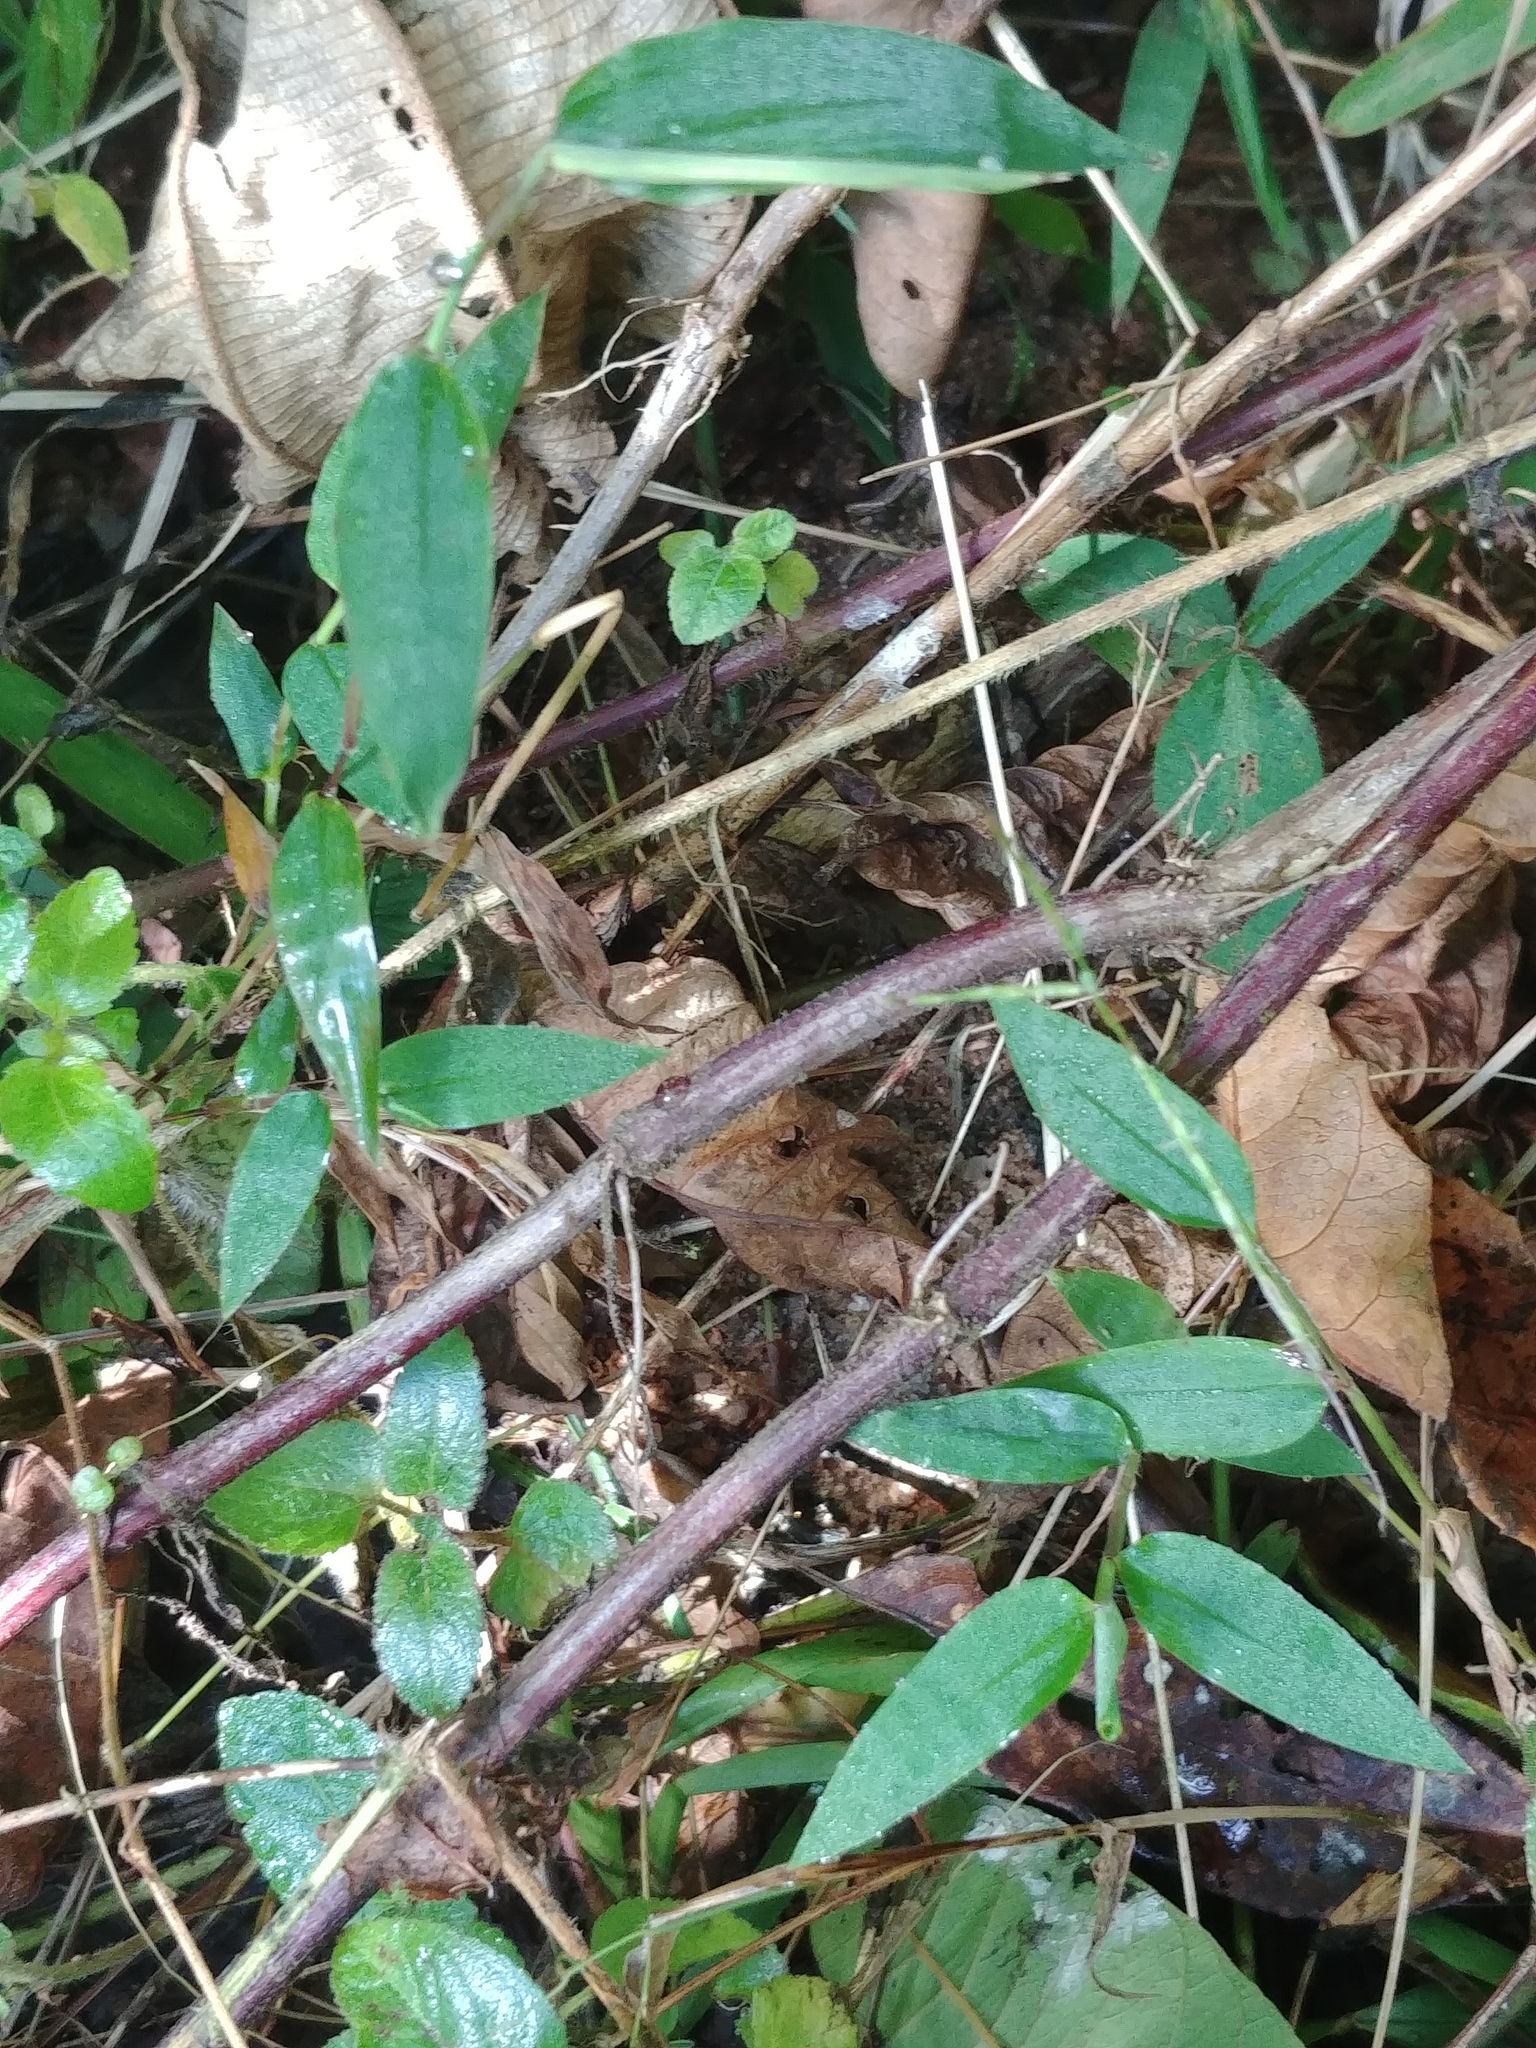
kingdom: Plantae
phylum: Tracheophyta
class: Liliopsida
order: Poales
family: Poaceae
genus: Microstegium
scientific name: Microstegium nudum
